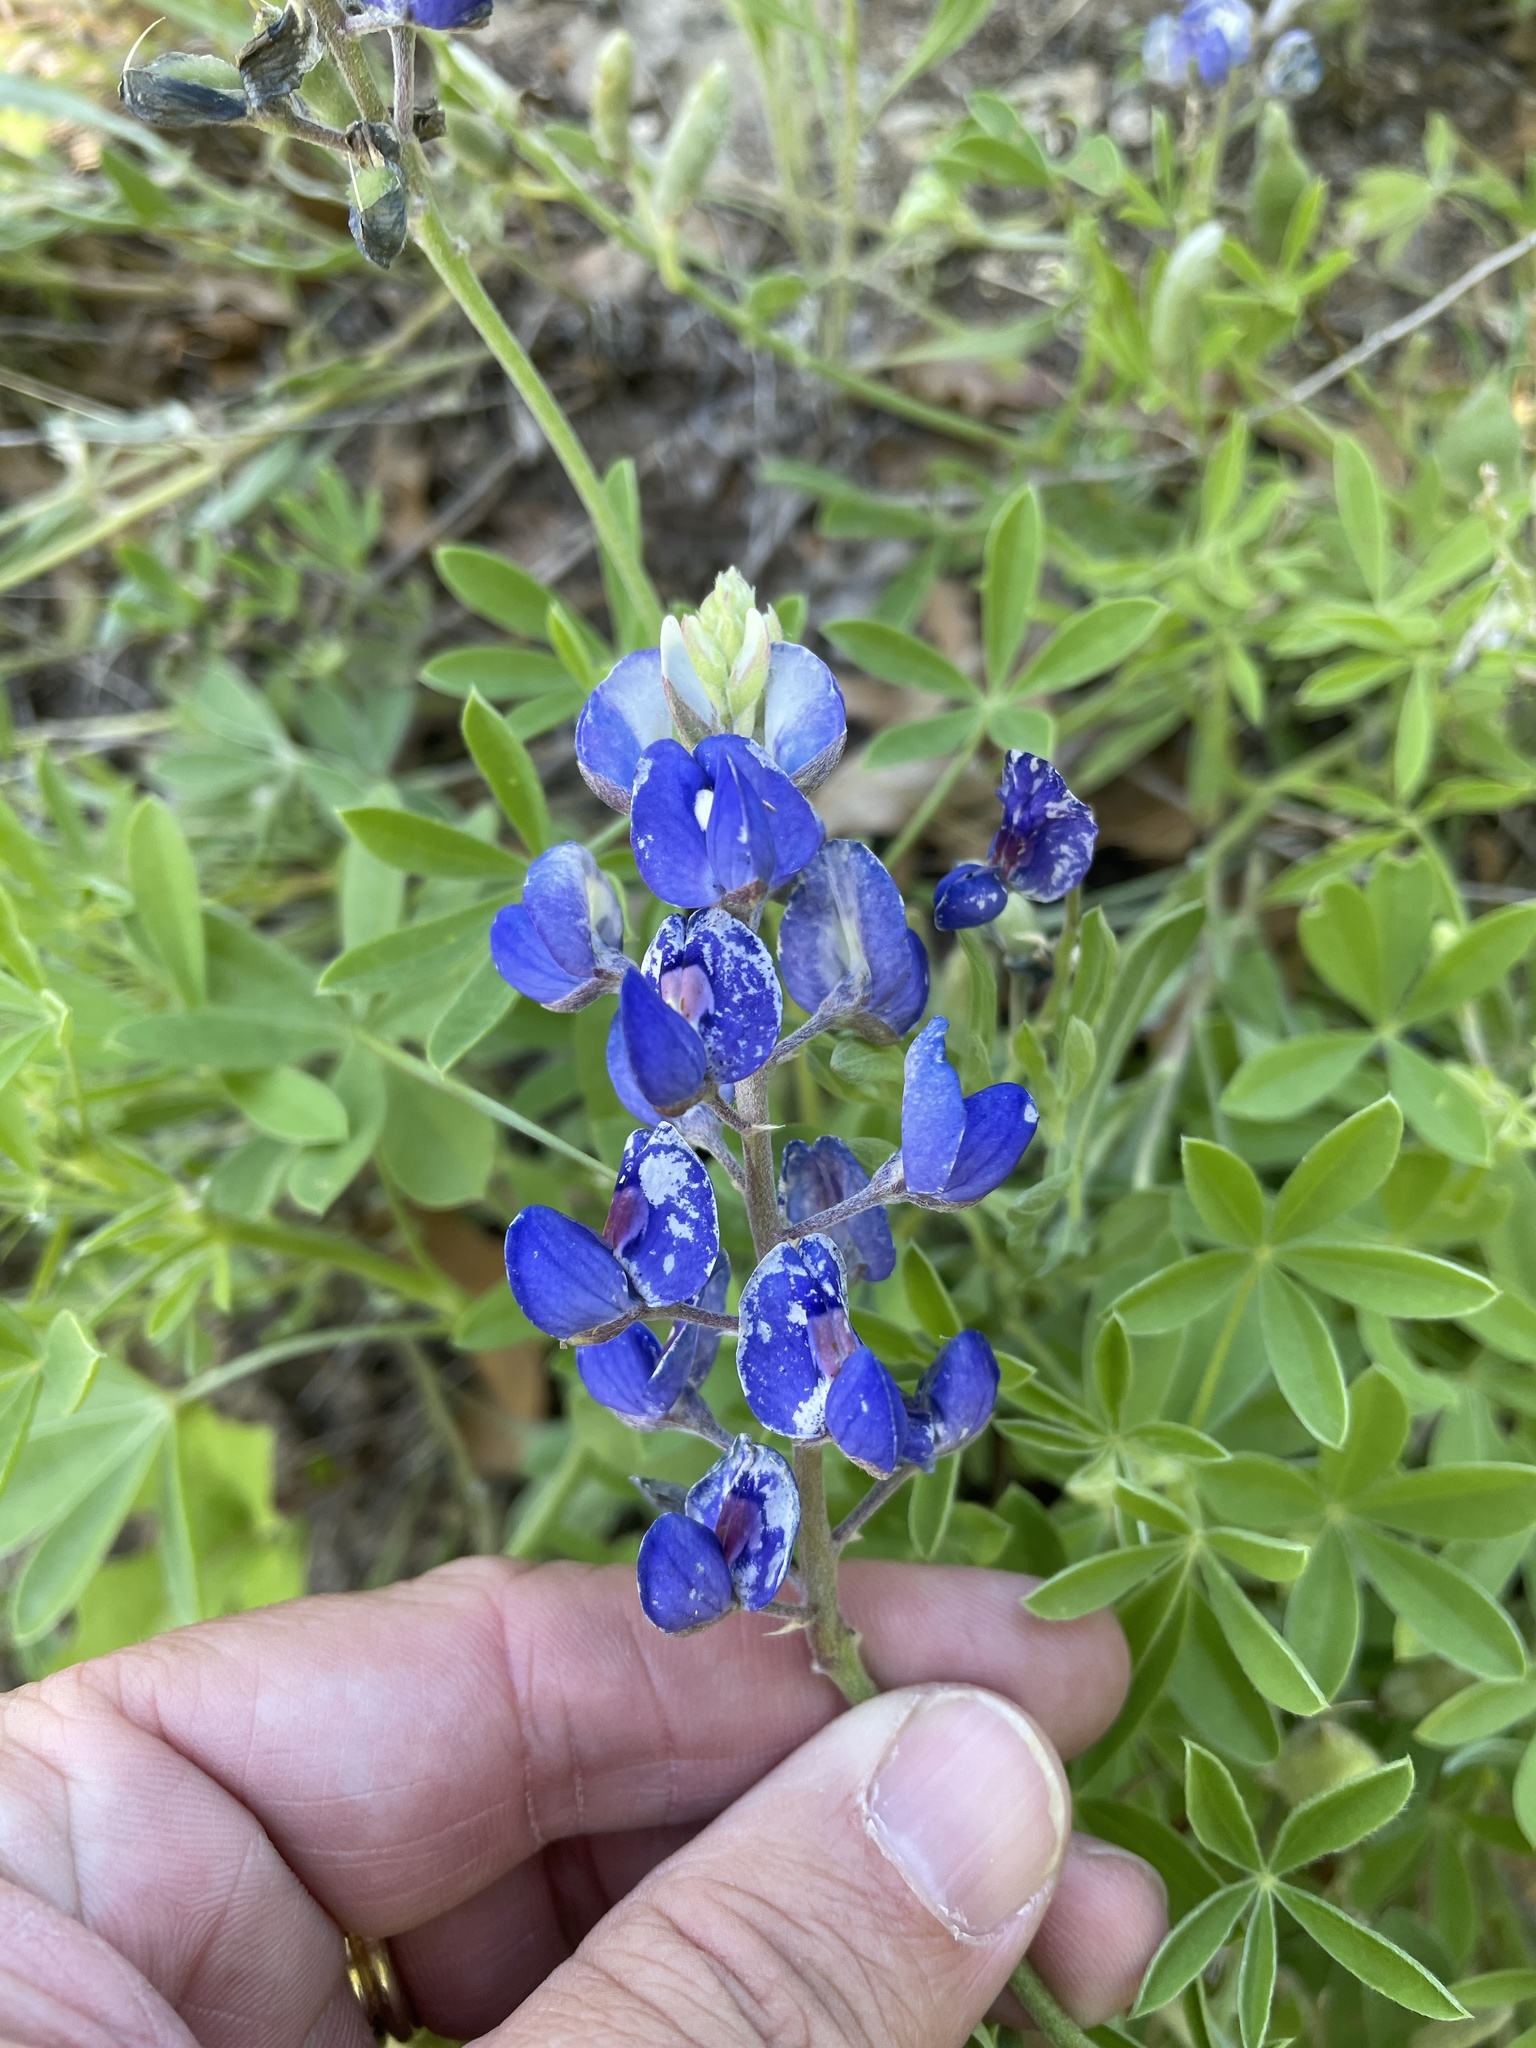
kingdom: Plantae
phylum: Tracheophyta
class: Magnoliopsida
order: Fabales
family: Fabaceae
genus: Lupinus
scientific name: Lupinus texensis
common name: Texas bluebonnet
